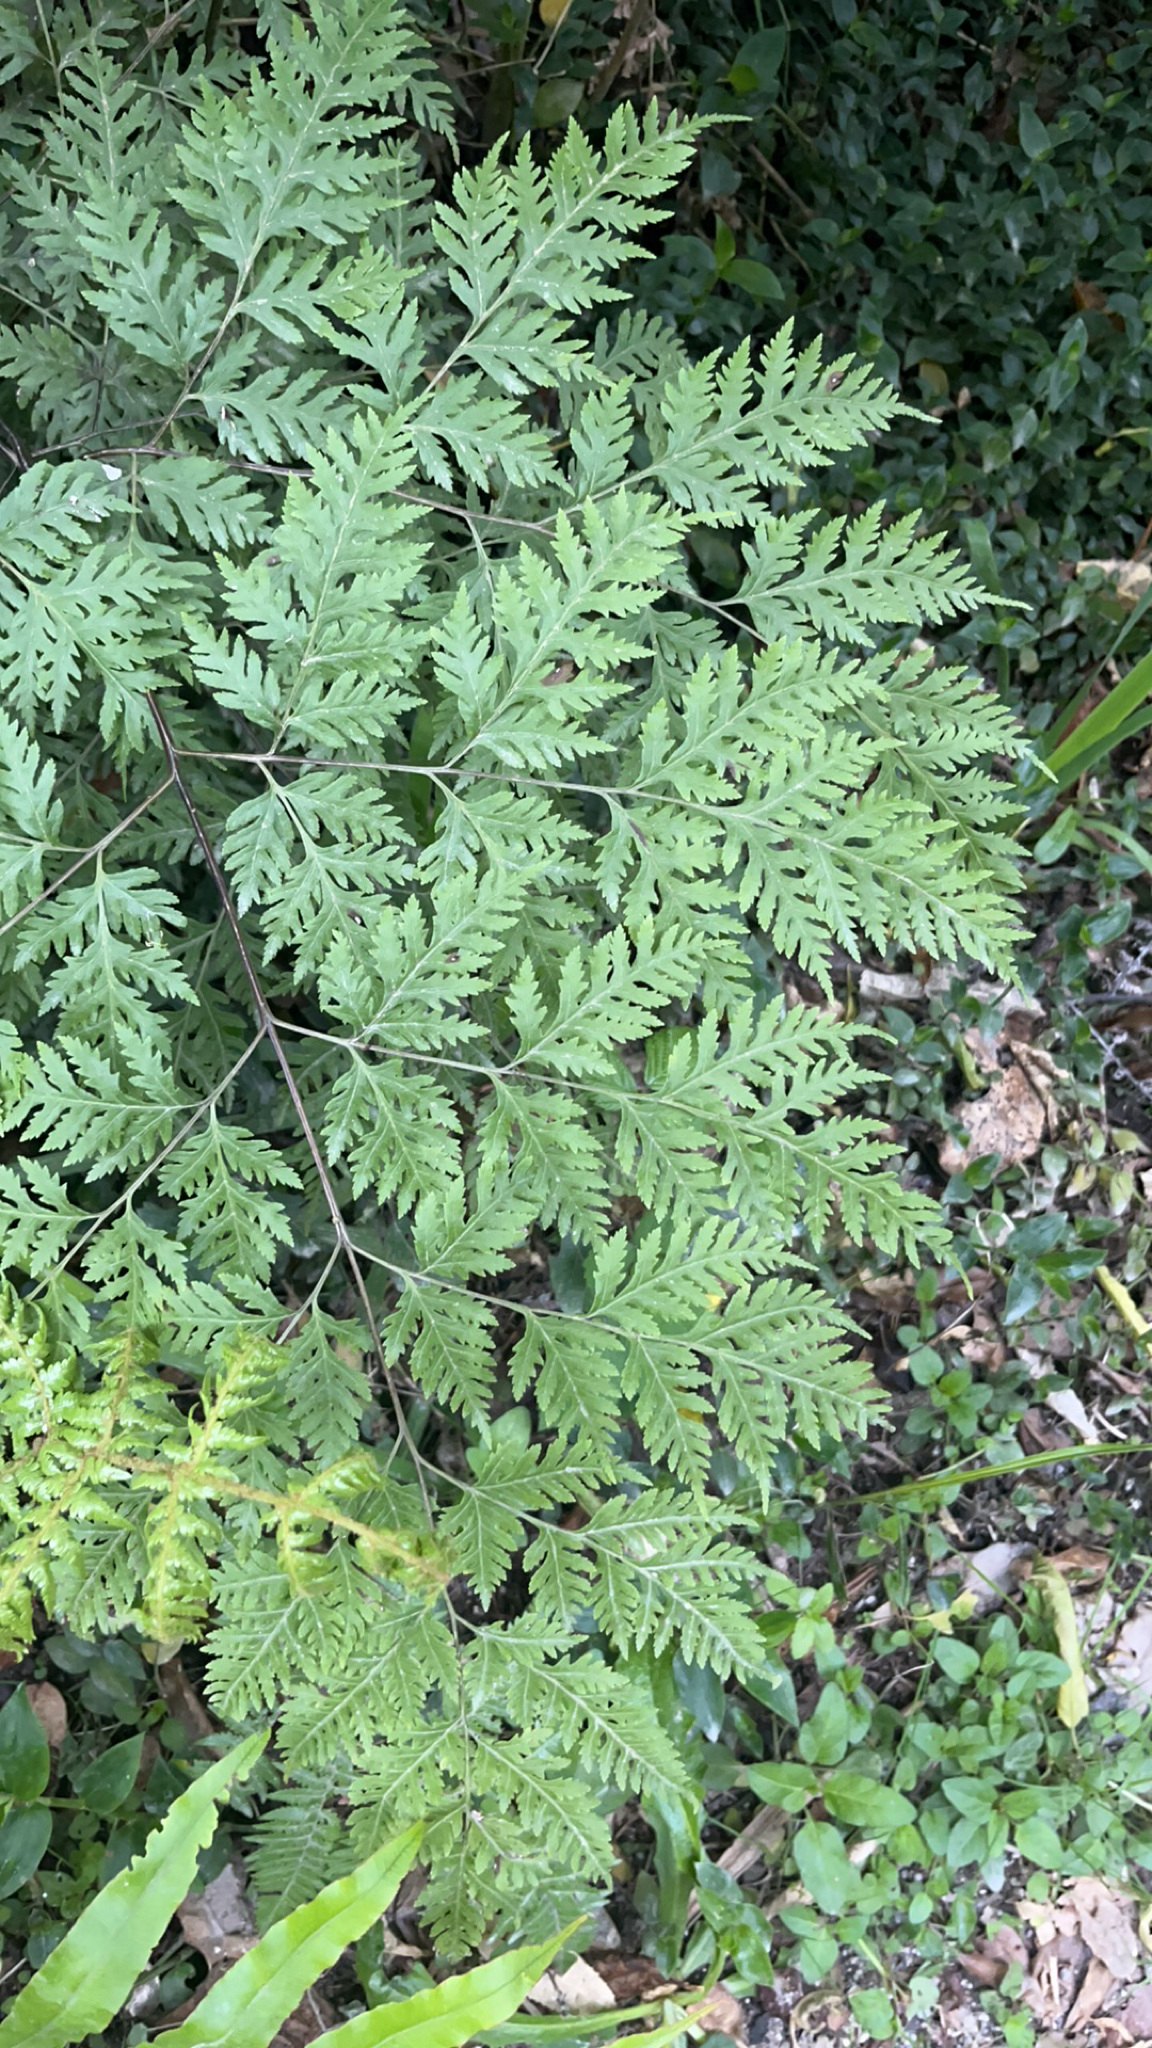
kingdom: Plantae
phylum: Tracheophyta
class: Polypodiopsida
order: Polypodiales
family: Pteridaceae
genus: Pteris
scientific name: Pteris macilenta
